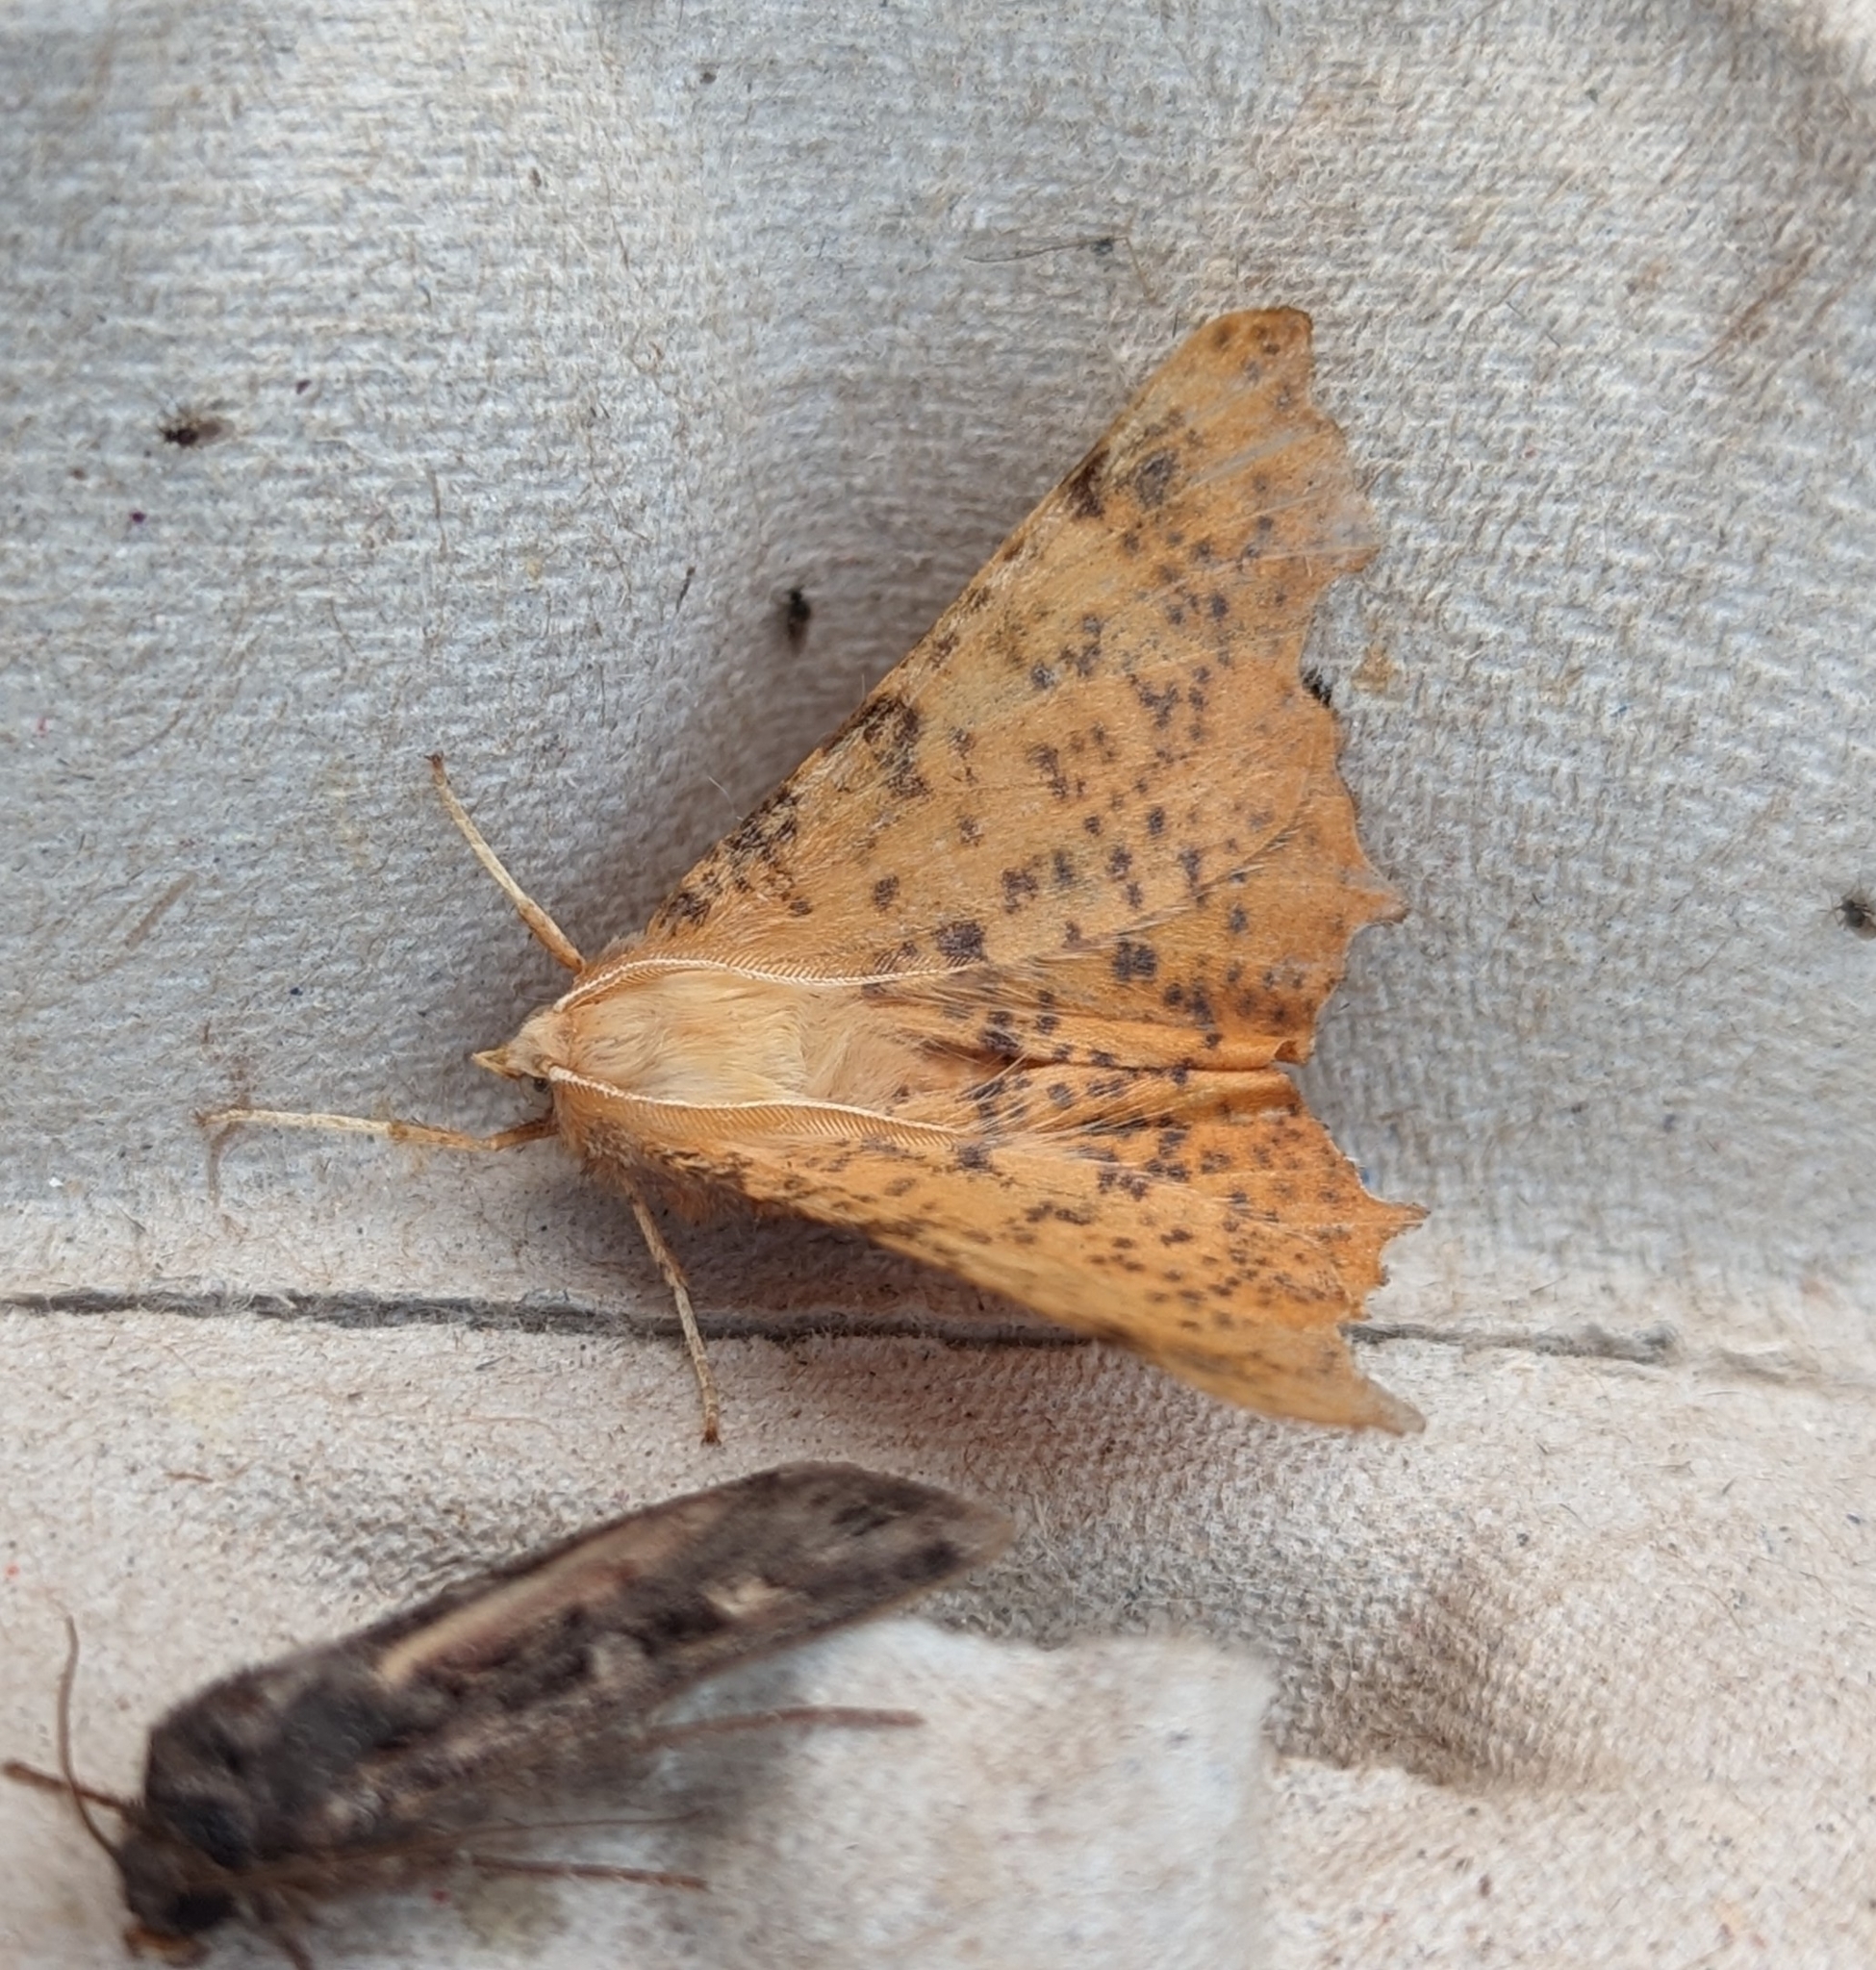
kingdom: Animalia
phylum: Arthropoda
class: Insecta
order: Lepidoptera
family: Geometridae
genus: Ennomos
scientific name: Ennomos magnaria
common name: Maple spanworm
